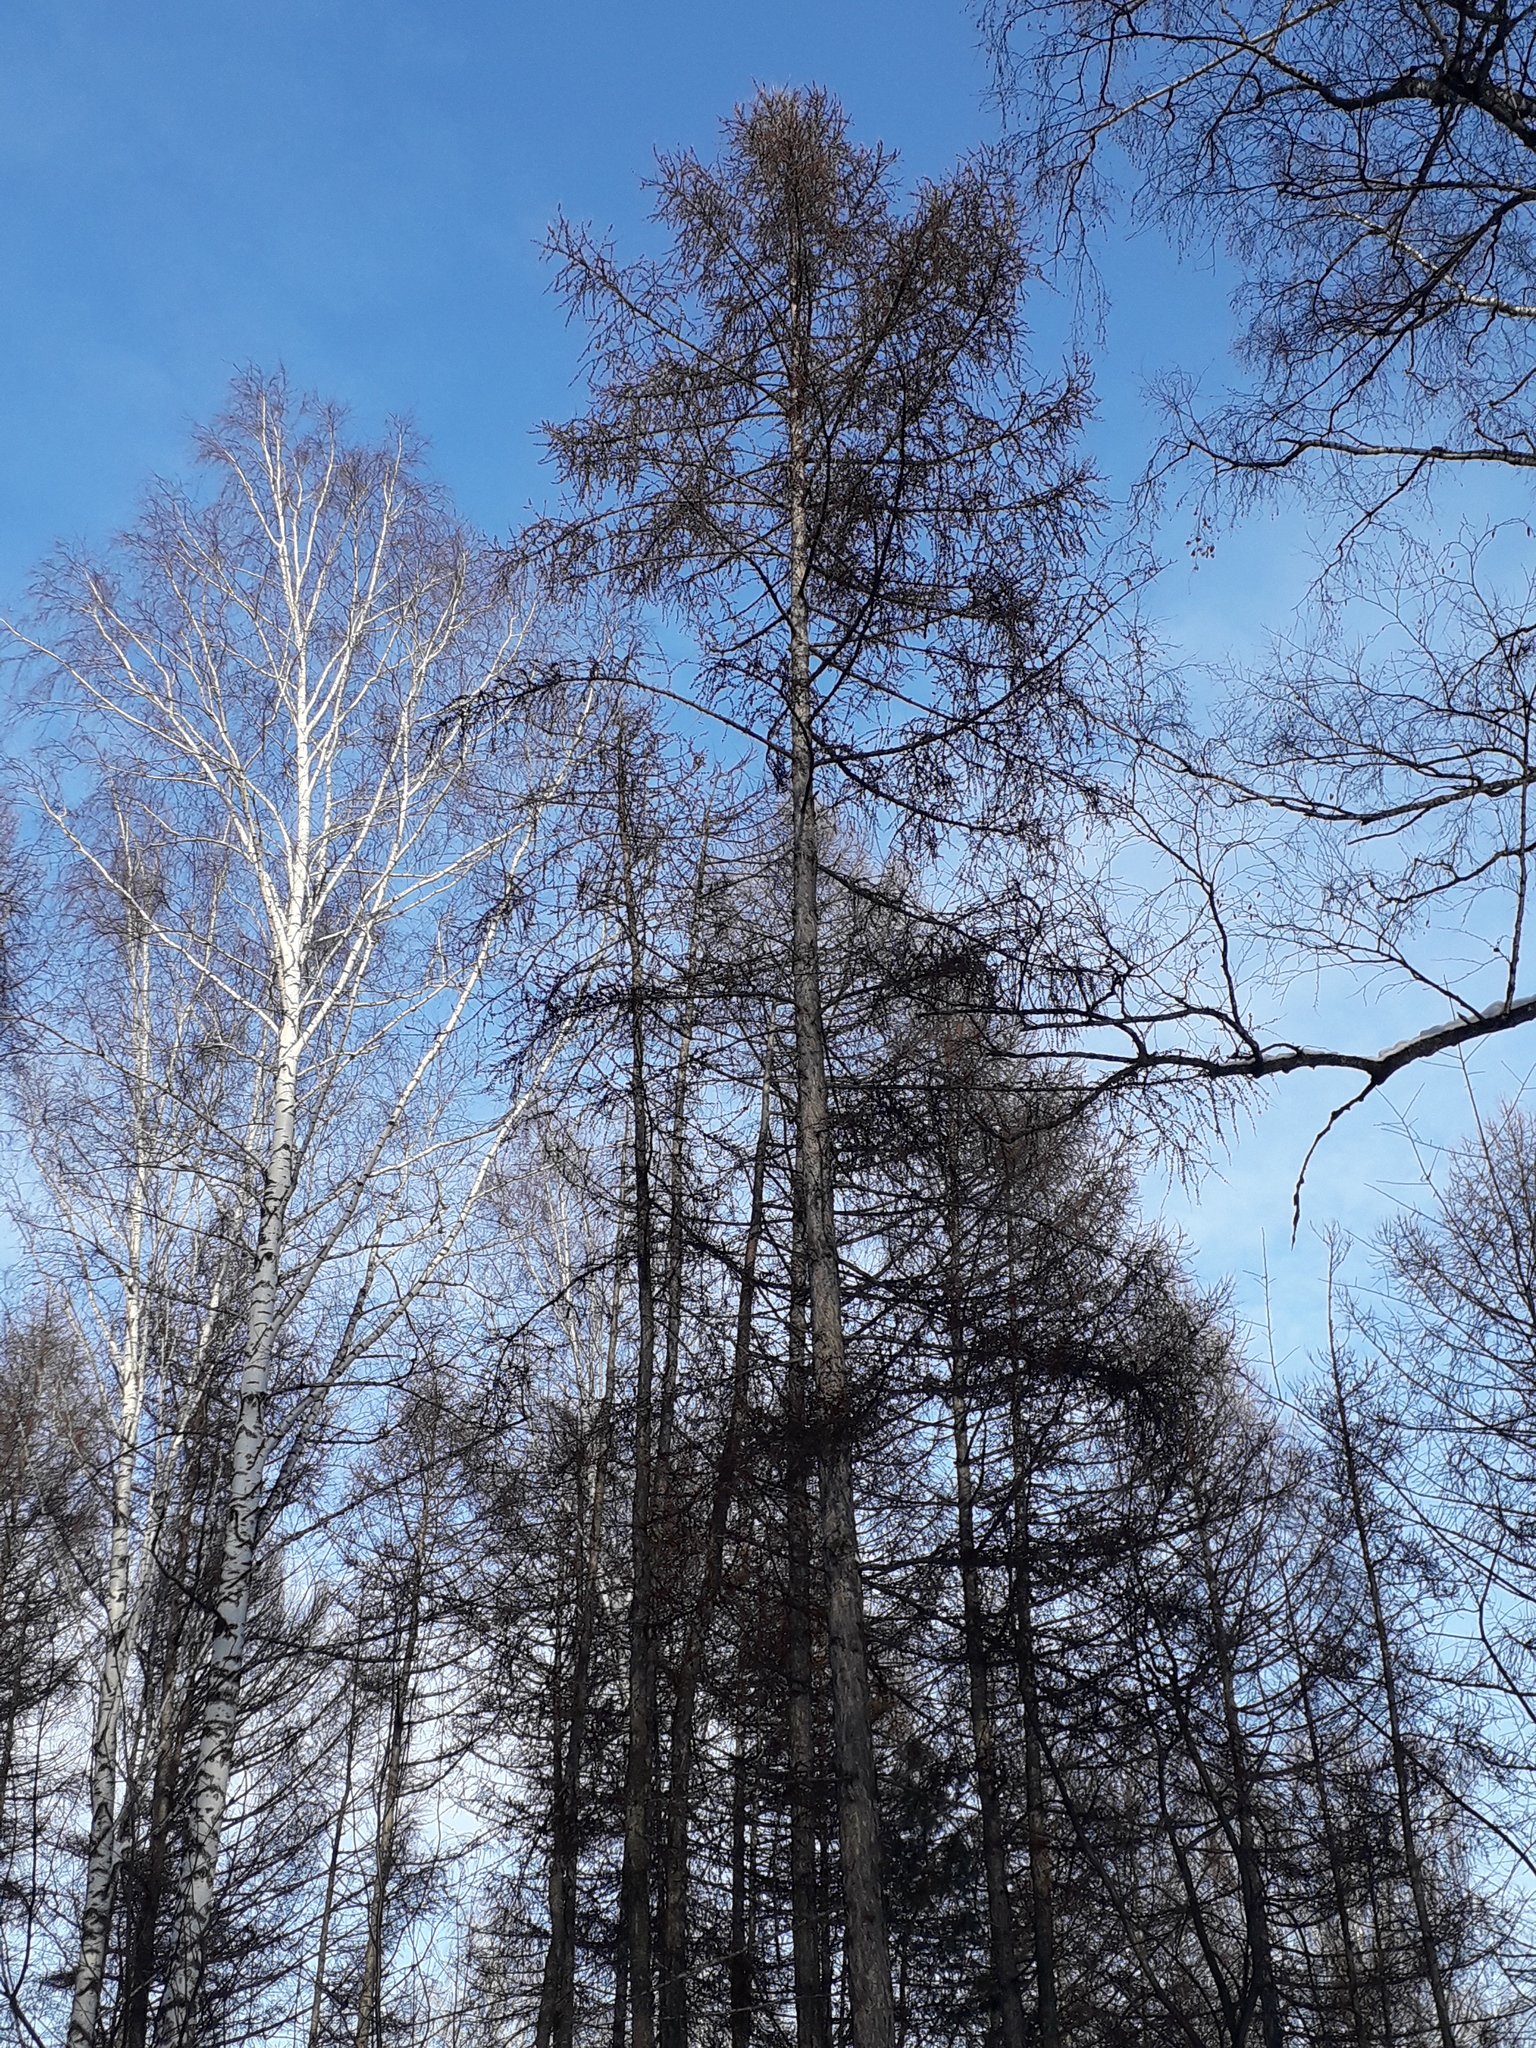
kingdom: Plantae
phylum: Tracheophyta
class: Pinopsida
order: Pinales
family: Pinaceae
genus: Larix
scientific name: Larix sibirica
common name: Siberian larch
